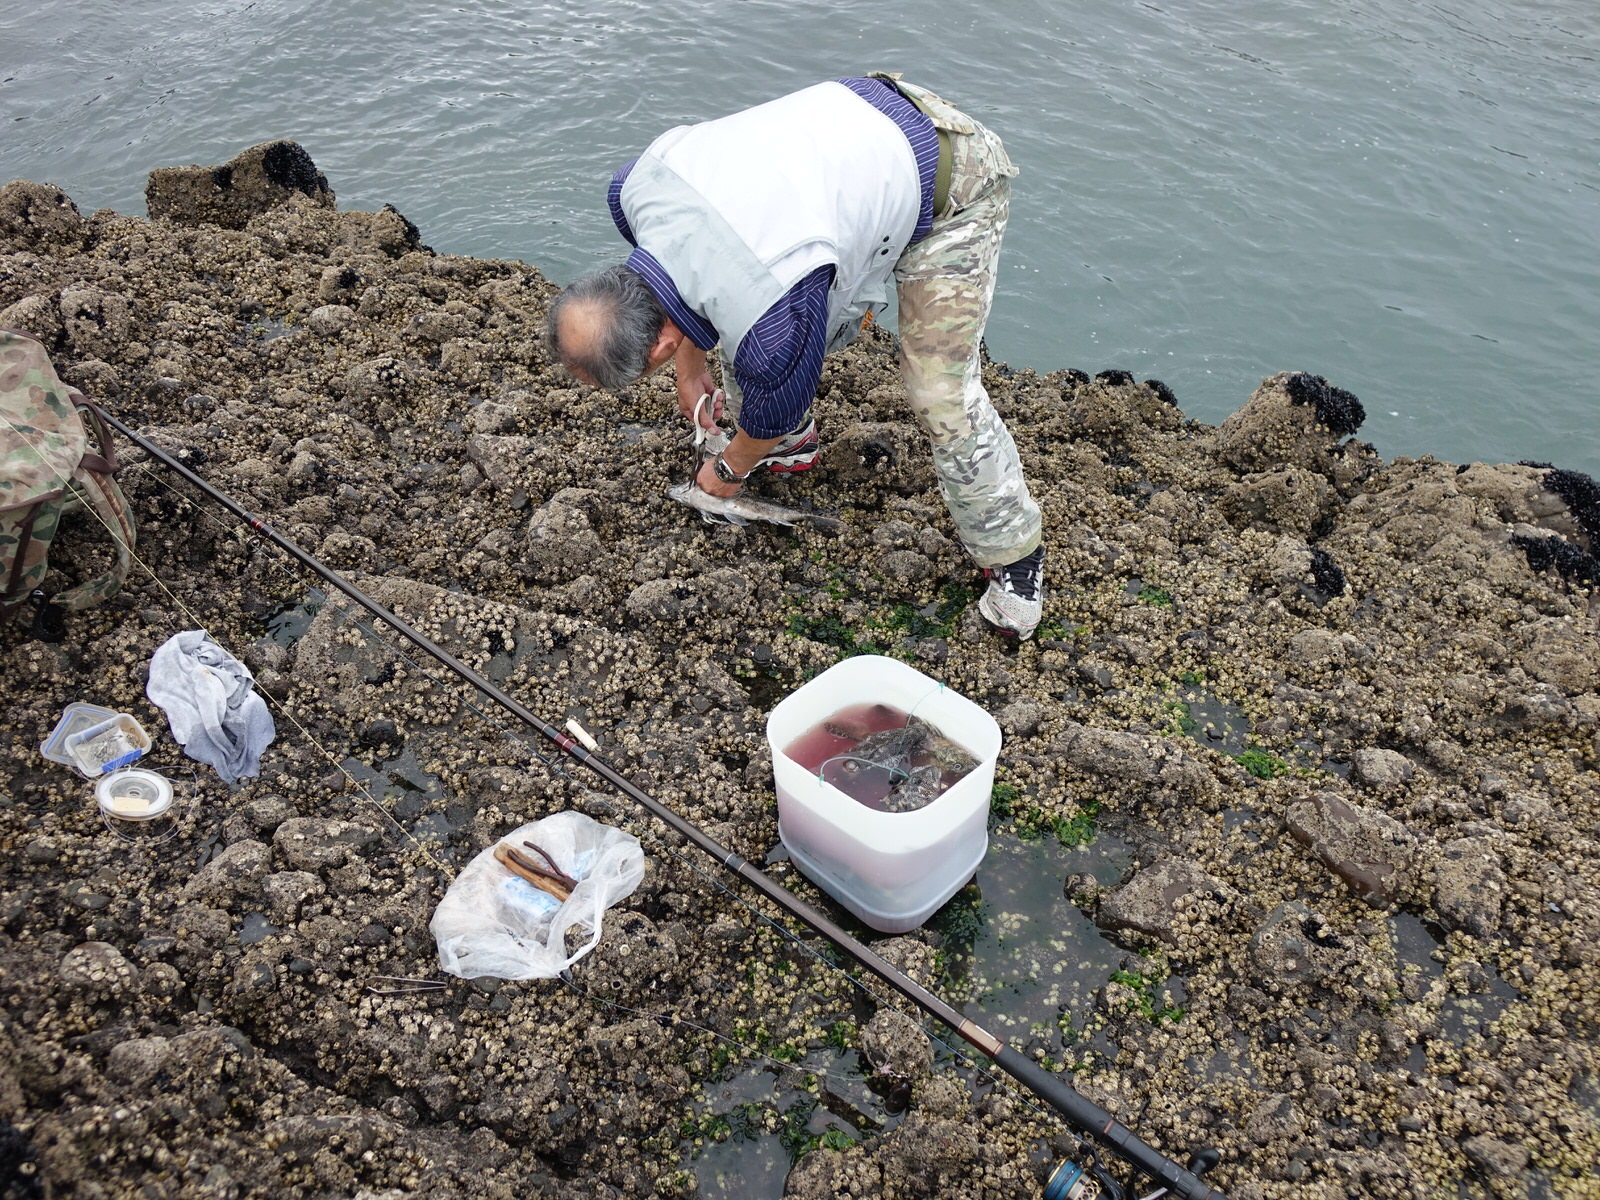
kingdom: Animalia
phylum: Chordata
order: Perciformes
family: Chironemidae
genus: Chironemus
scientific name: Chironemus marmoratus
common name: Kelpfish
